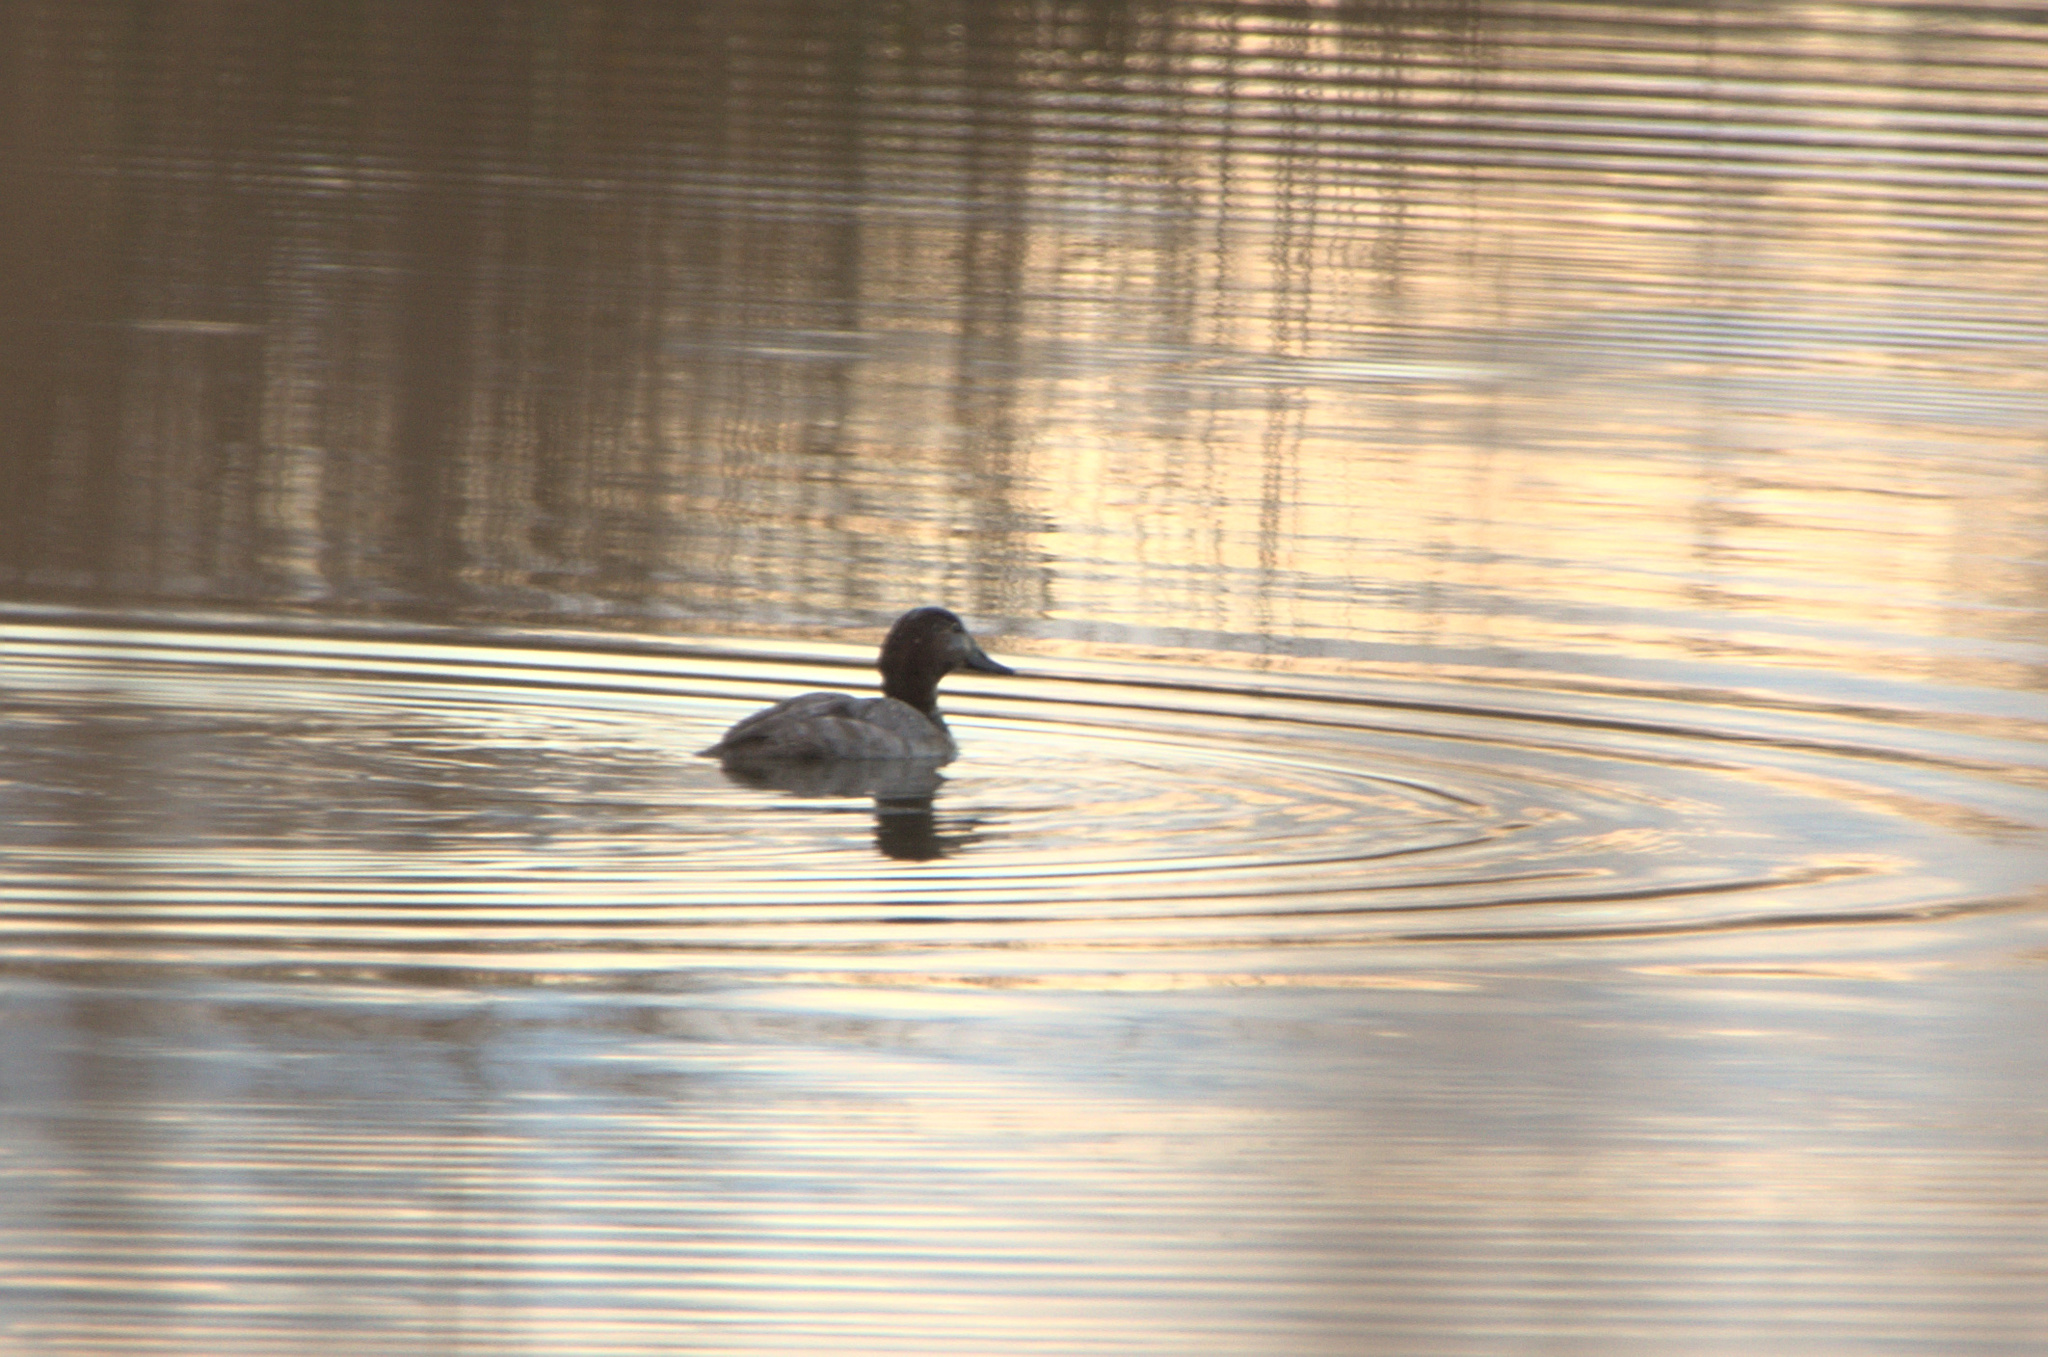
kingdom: Animalia
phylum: Chordata
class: Aves
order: Anseriformes
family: Anatidae
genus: Aythya
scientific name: Aythya ferina
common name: Common pochard
